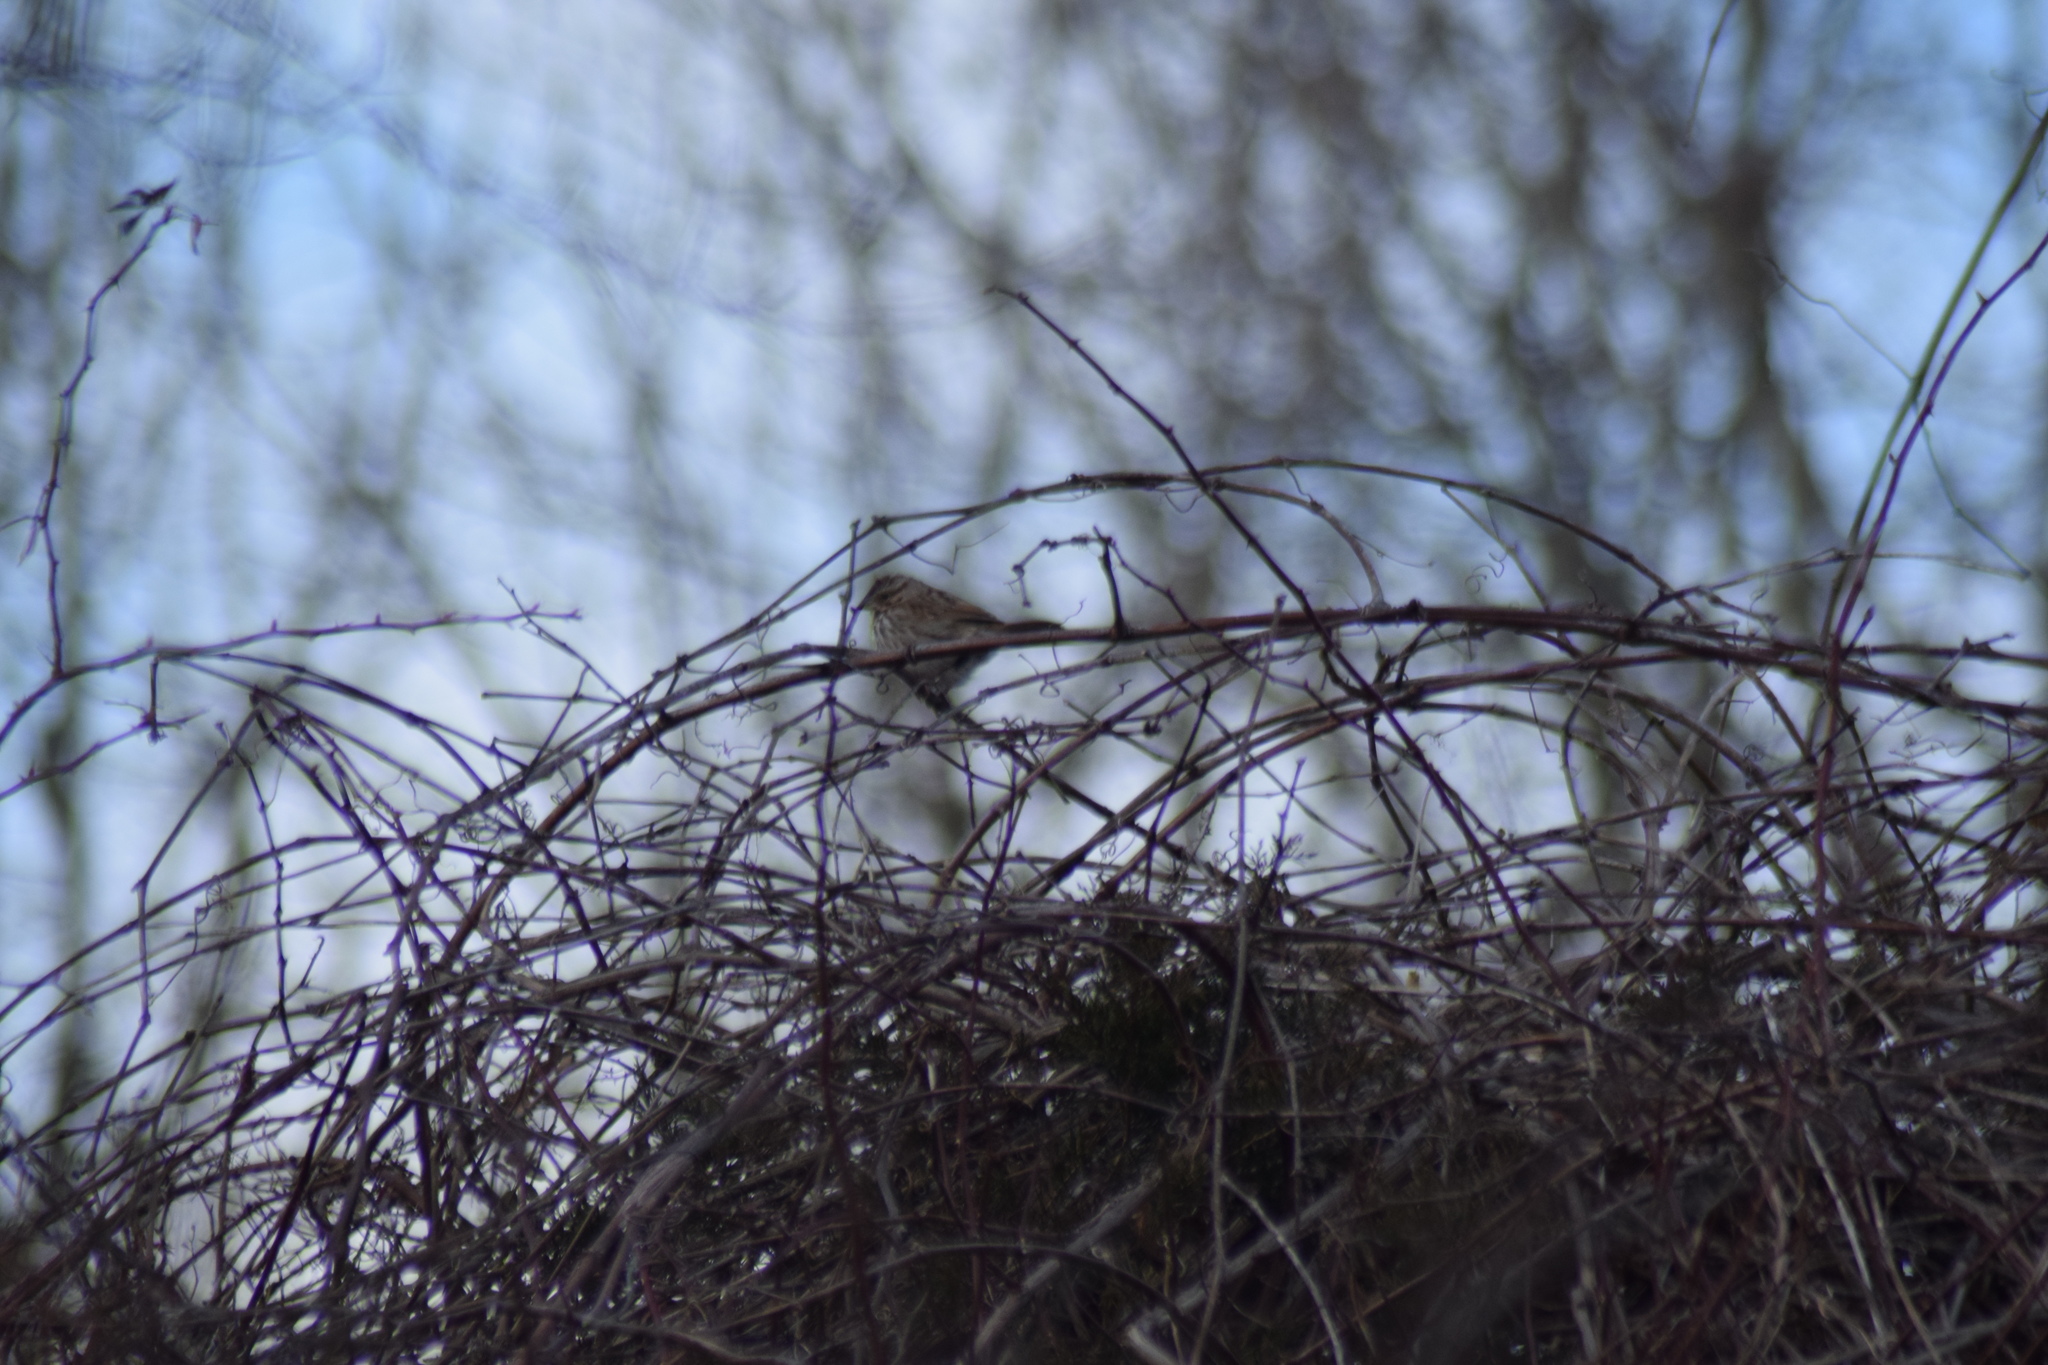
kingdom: Animalia
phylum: Chordata
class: Aves
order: Passeriformes
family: Passerellidae
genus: Melospiza
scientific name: Melospiza melodia
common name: Song sparrow
